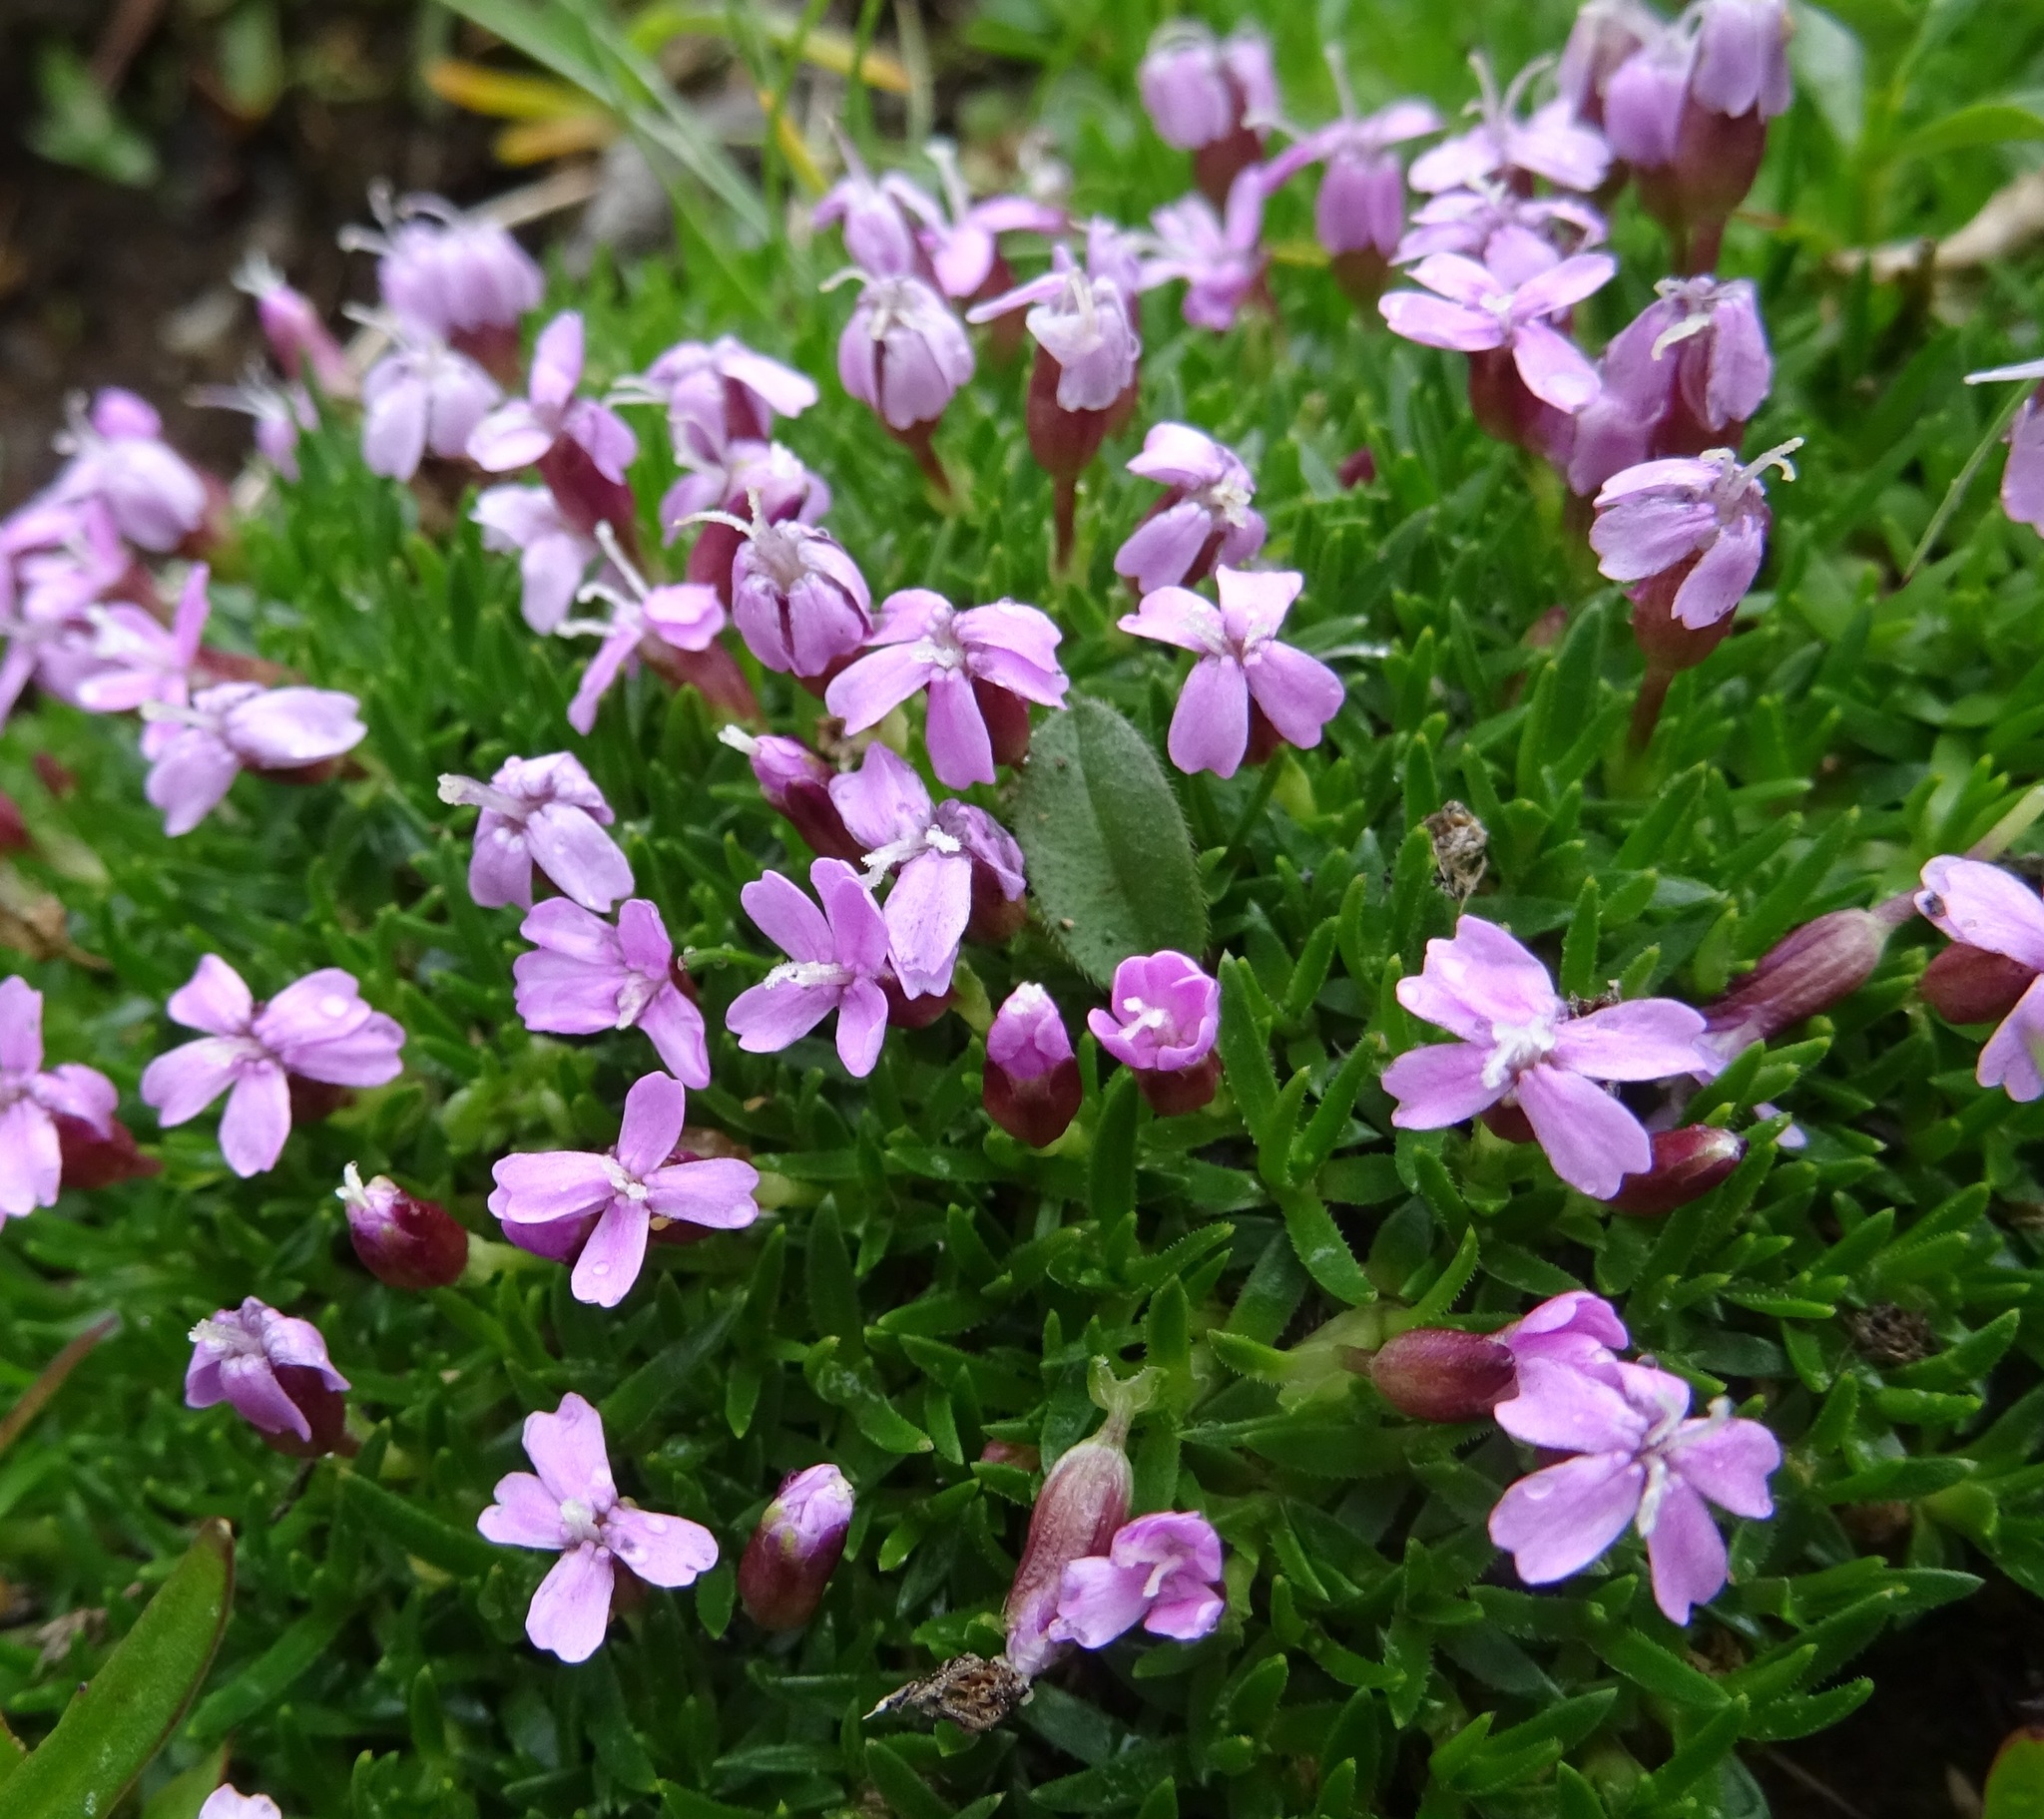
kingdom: Plantae
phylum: Tracheophyta
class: Magnoliopsida
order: Caryophyllales
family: Caryophyllaceae
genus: Silene
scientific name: Silene acaulis
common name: Moss campion
